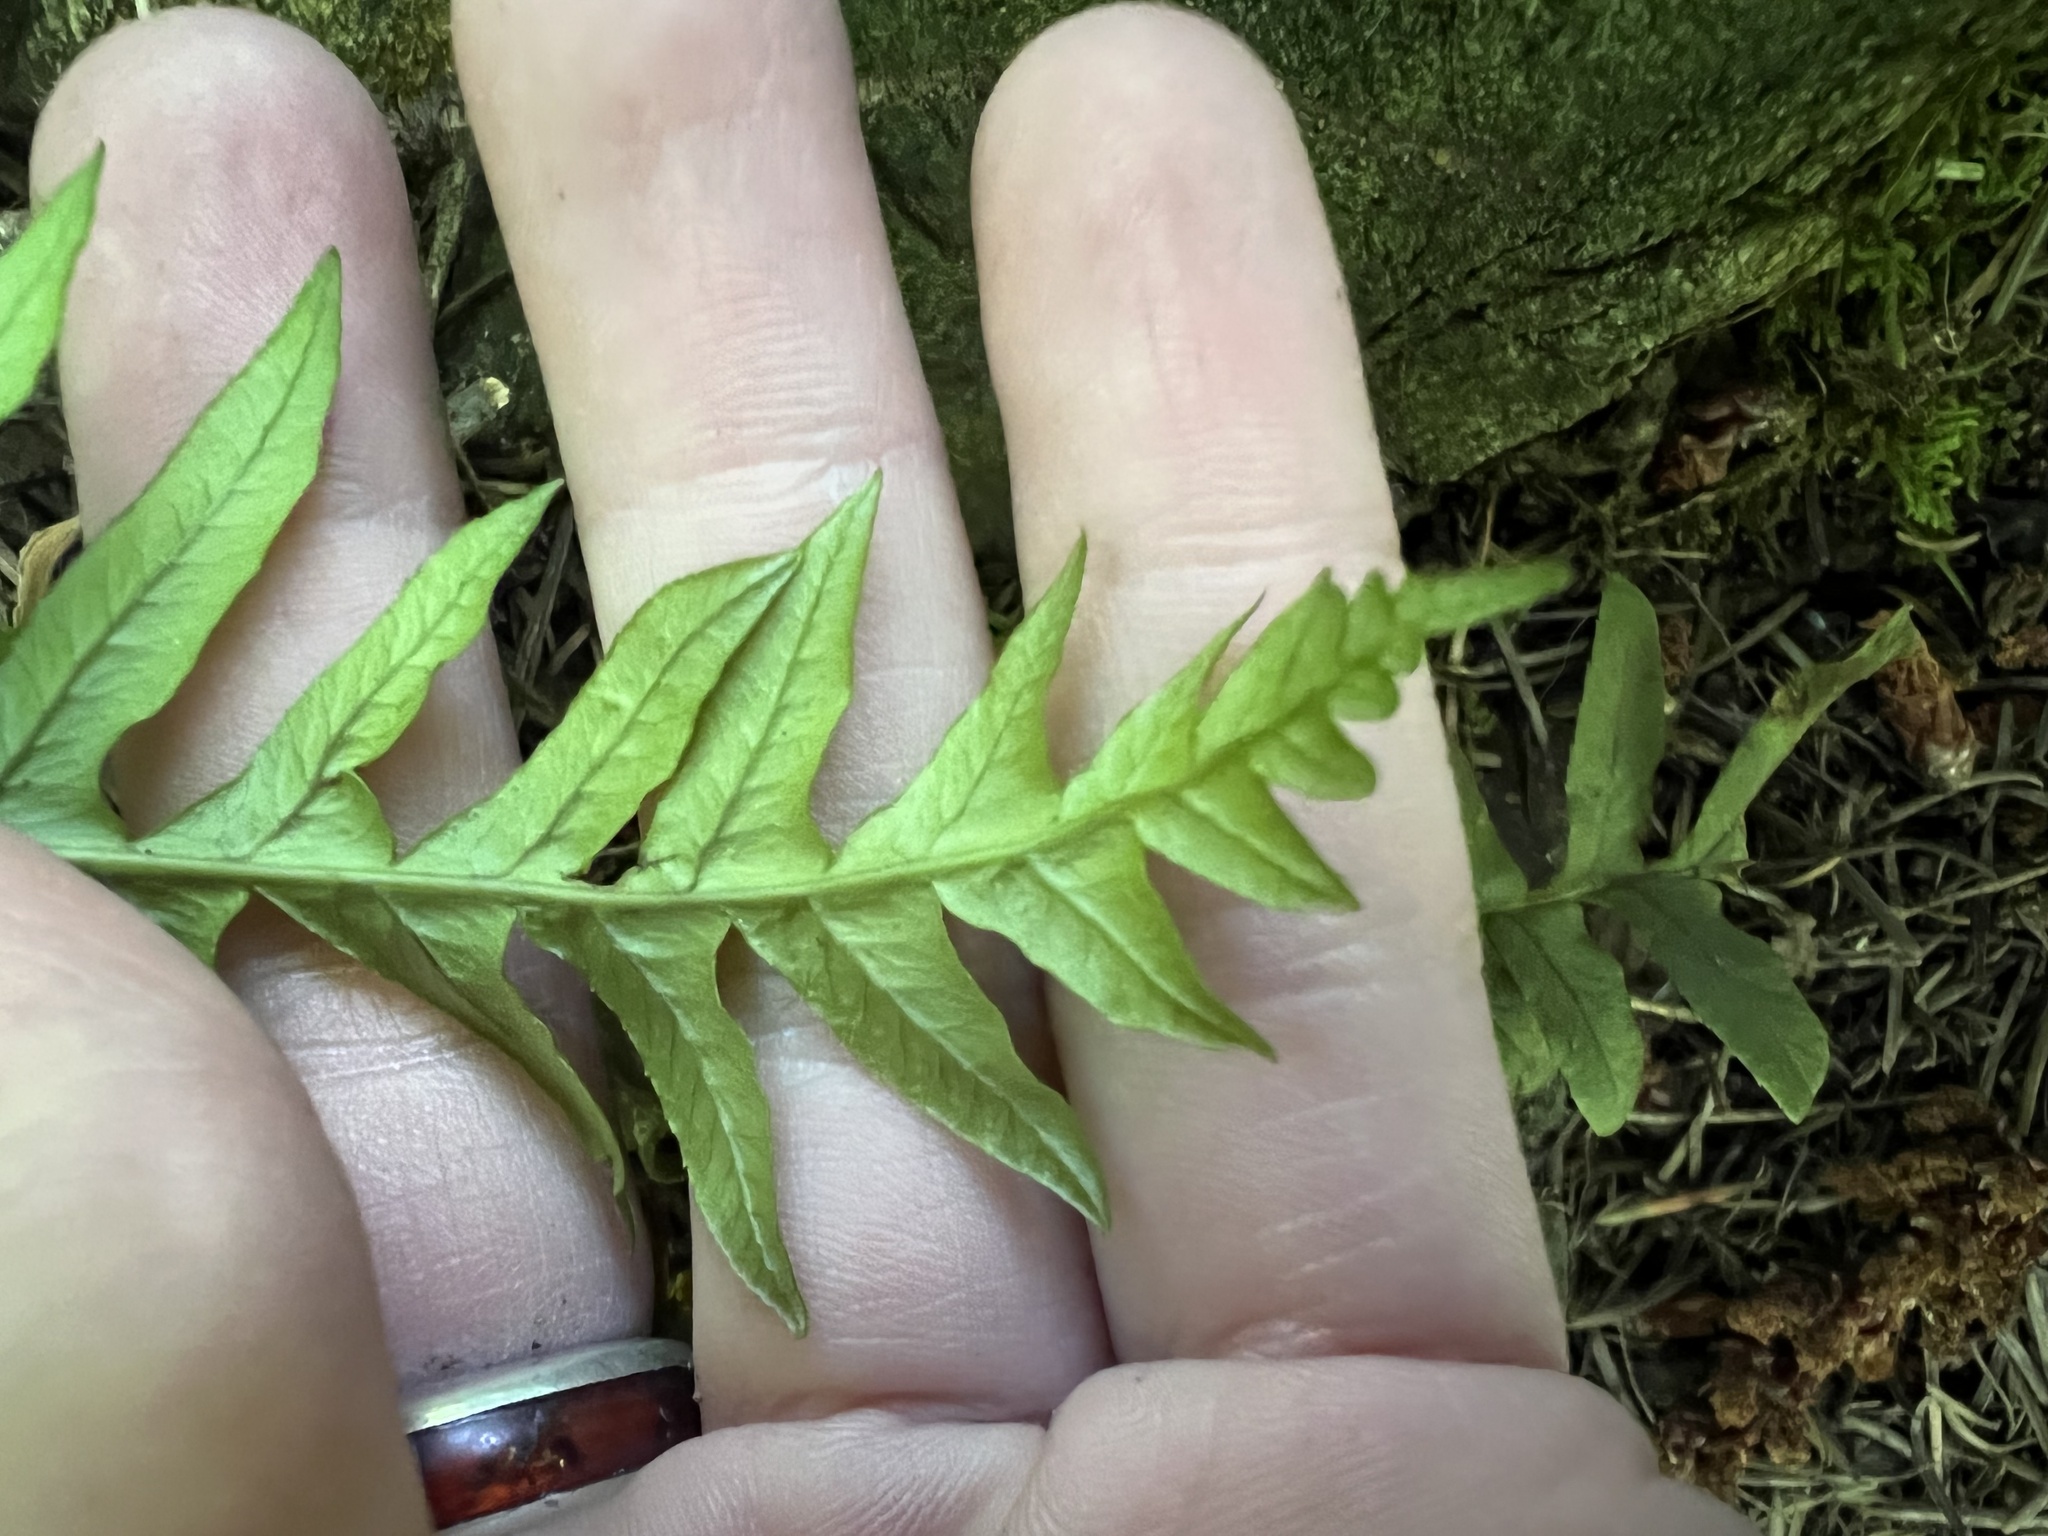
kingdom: Plantae
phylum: Tracheophyta
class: Polypodiopsida
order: Polypodiales
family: Polypodiaceae
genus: Polypodium
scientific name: Polypodium glycyrrhiza
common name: Licorice fern
